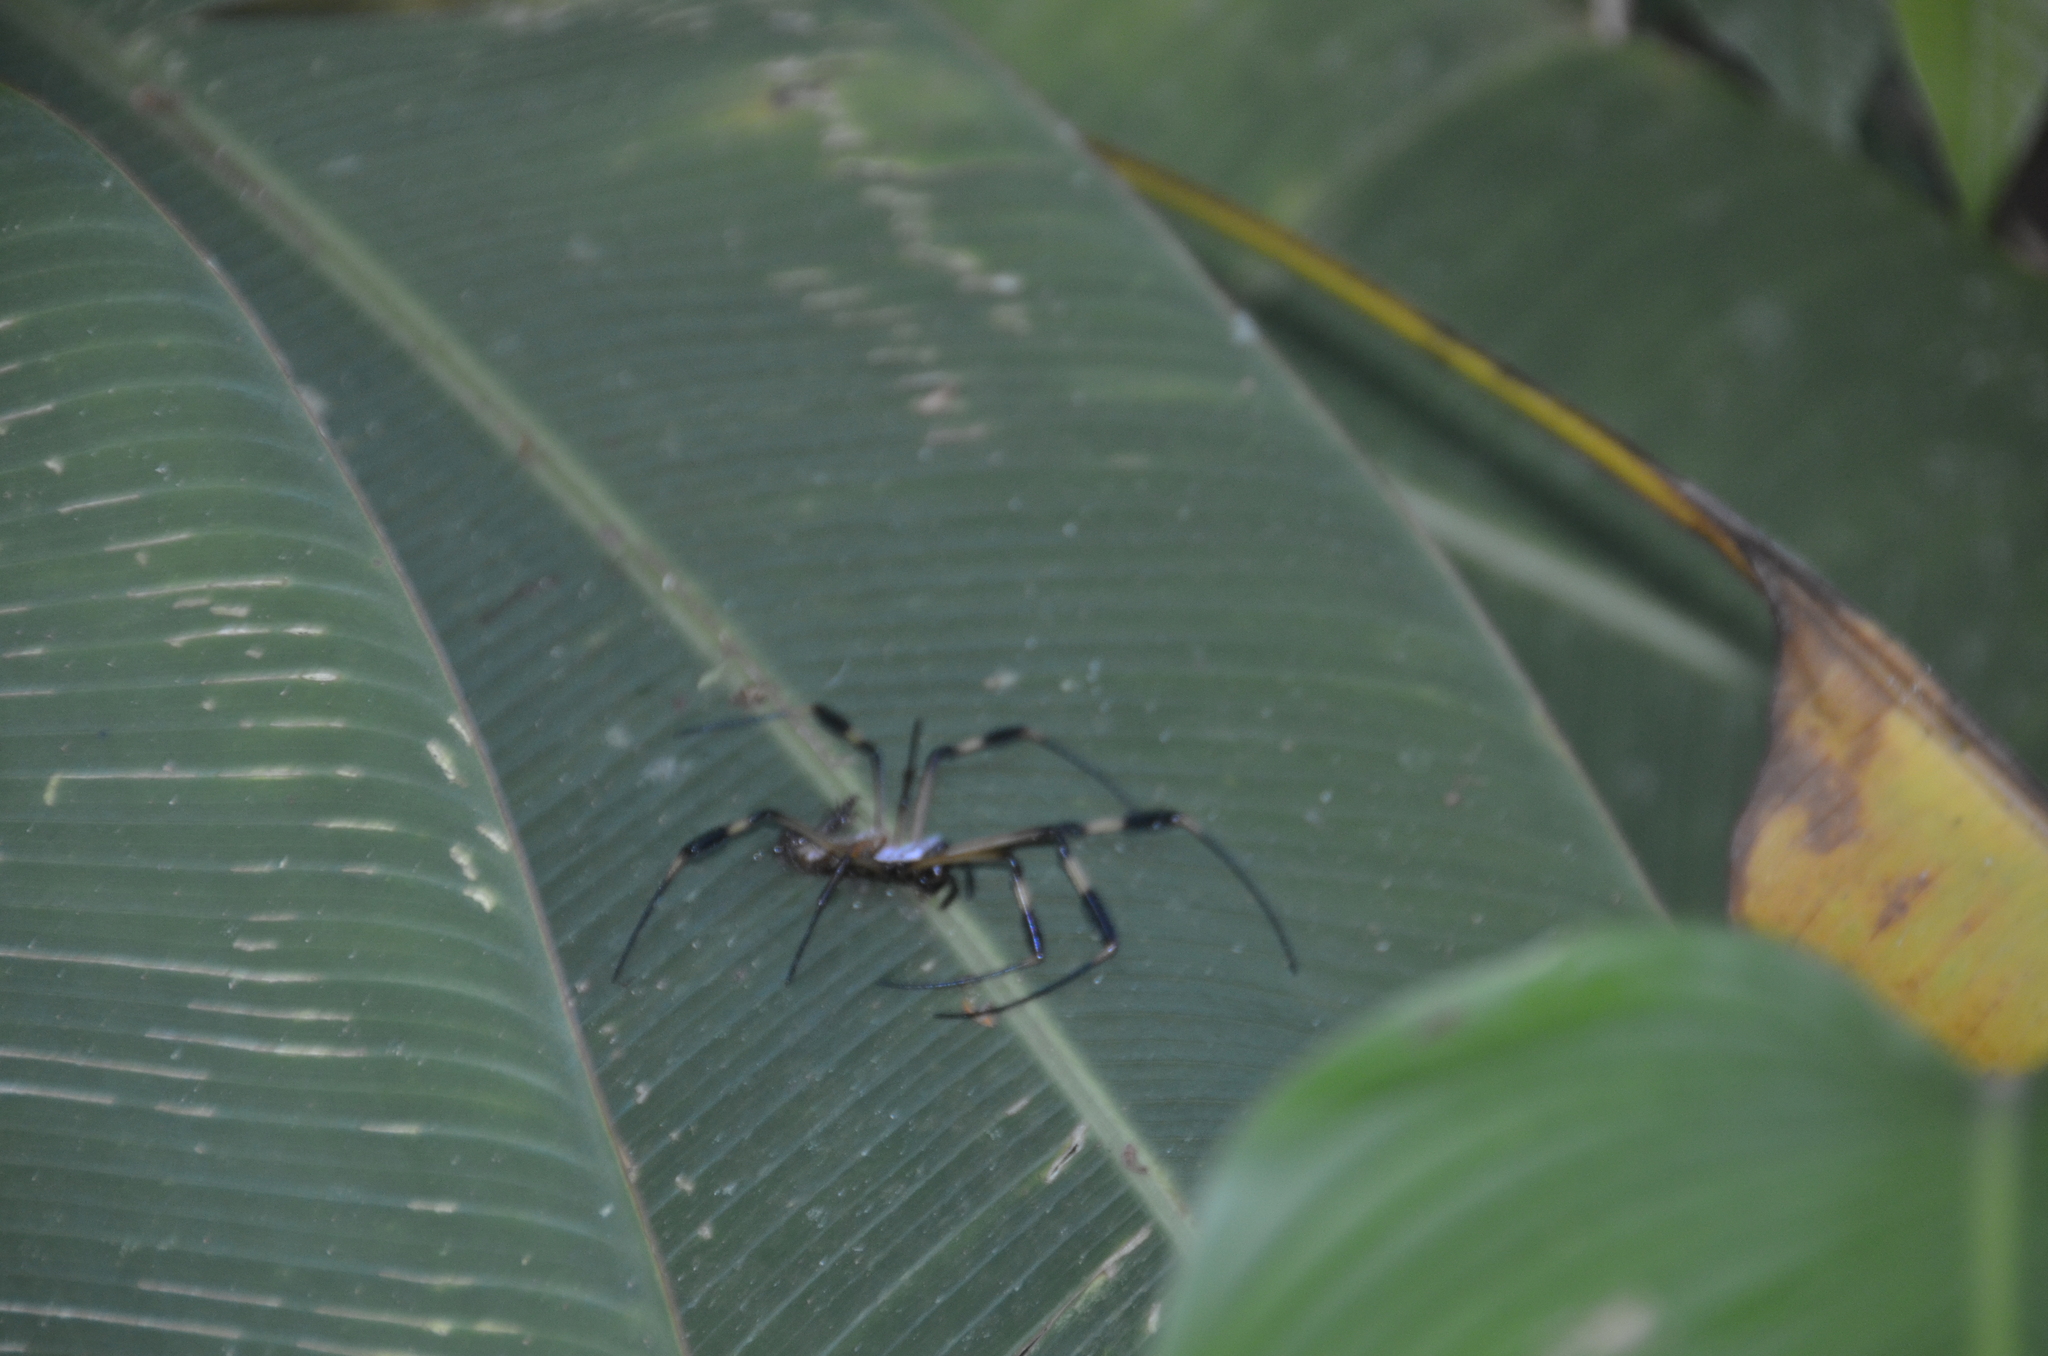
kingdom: Animalia
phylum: Arthropoda
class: Arachnida
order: Araneae
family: Araneidae
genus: Trichonephila
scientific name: Trichonephila clavipes
